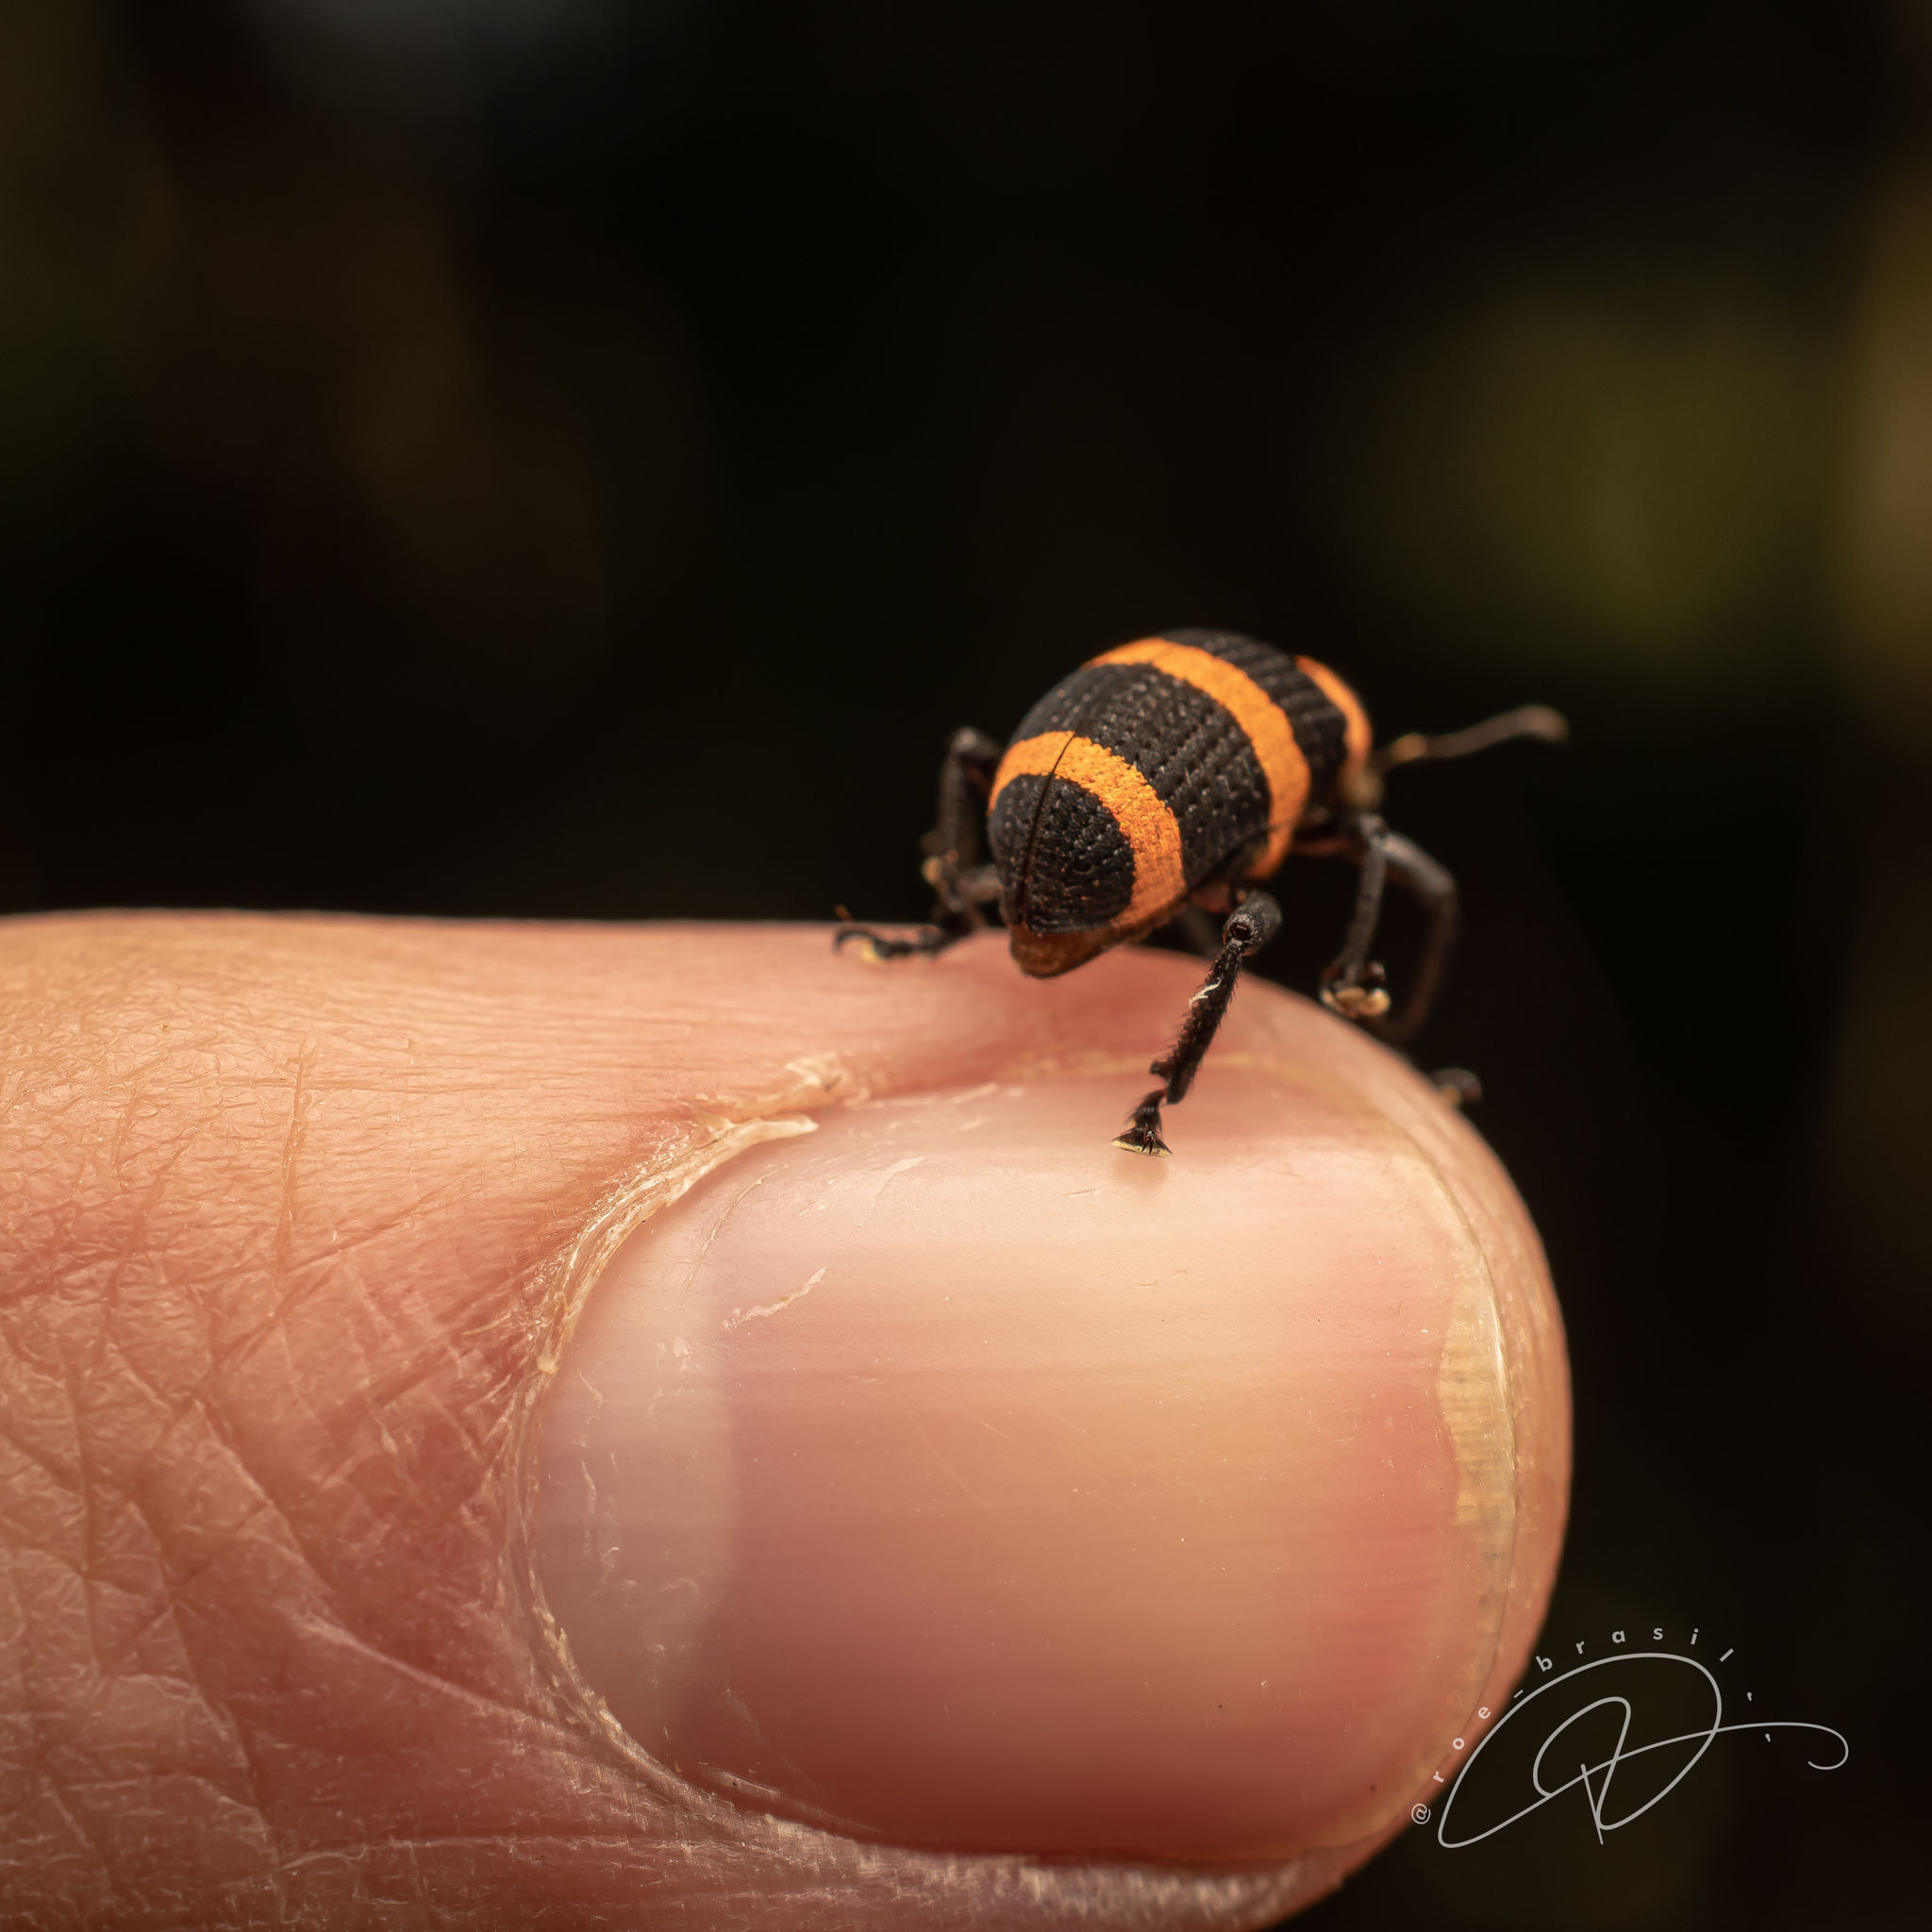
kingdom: Animalia
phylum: Arthropoda
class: Insecta
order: Coleoptera
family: Curculionidae
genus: Entyus
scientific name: Entyus auricinctus
